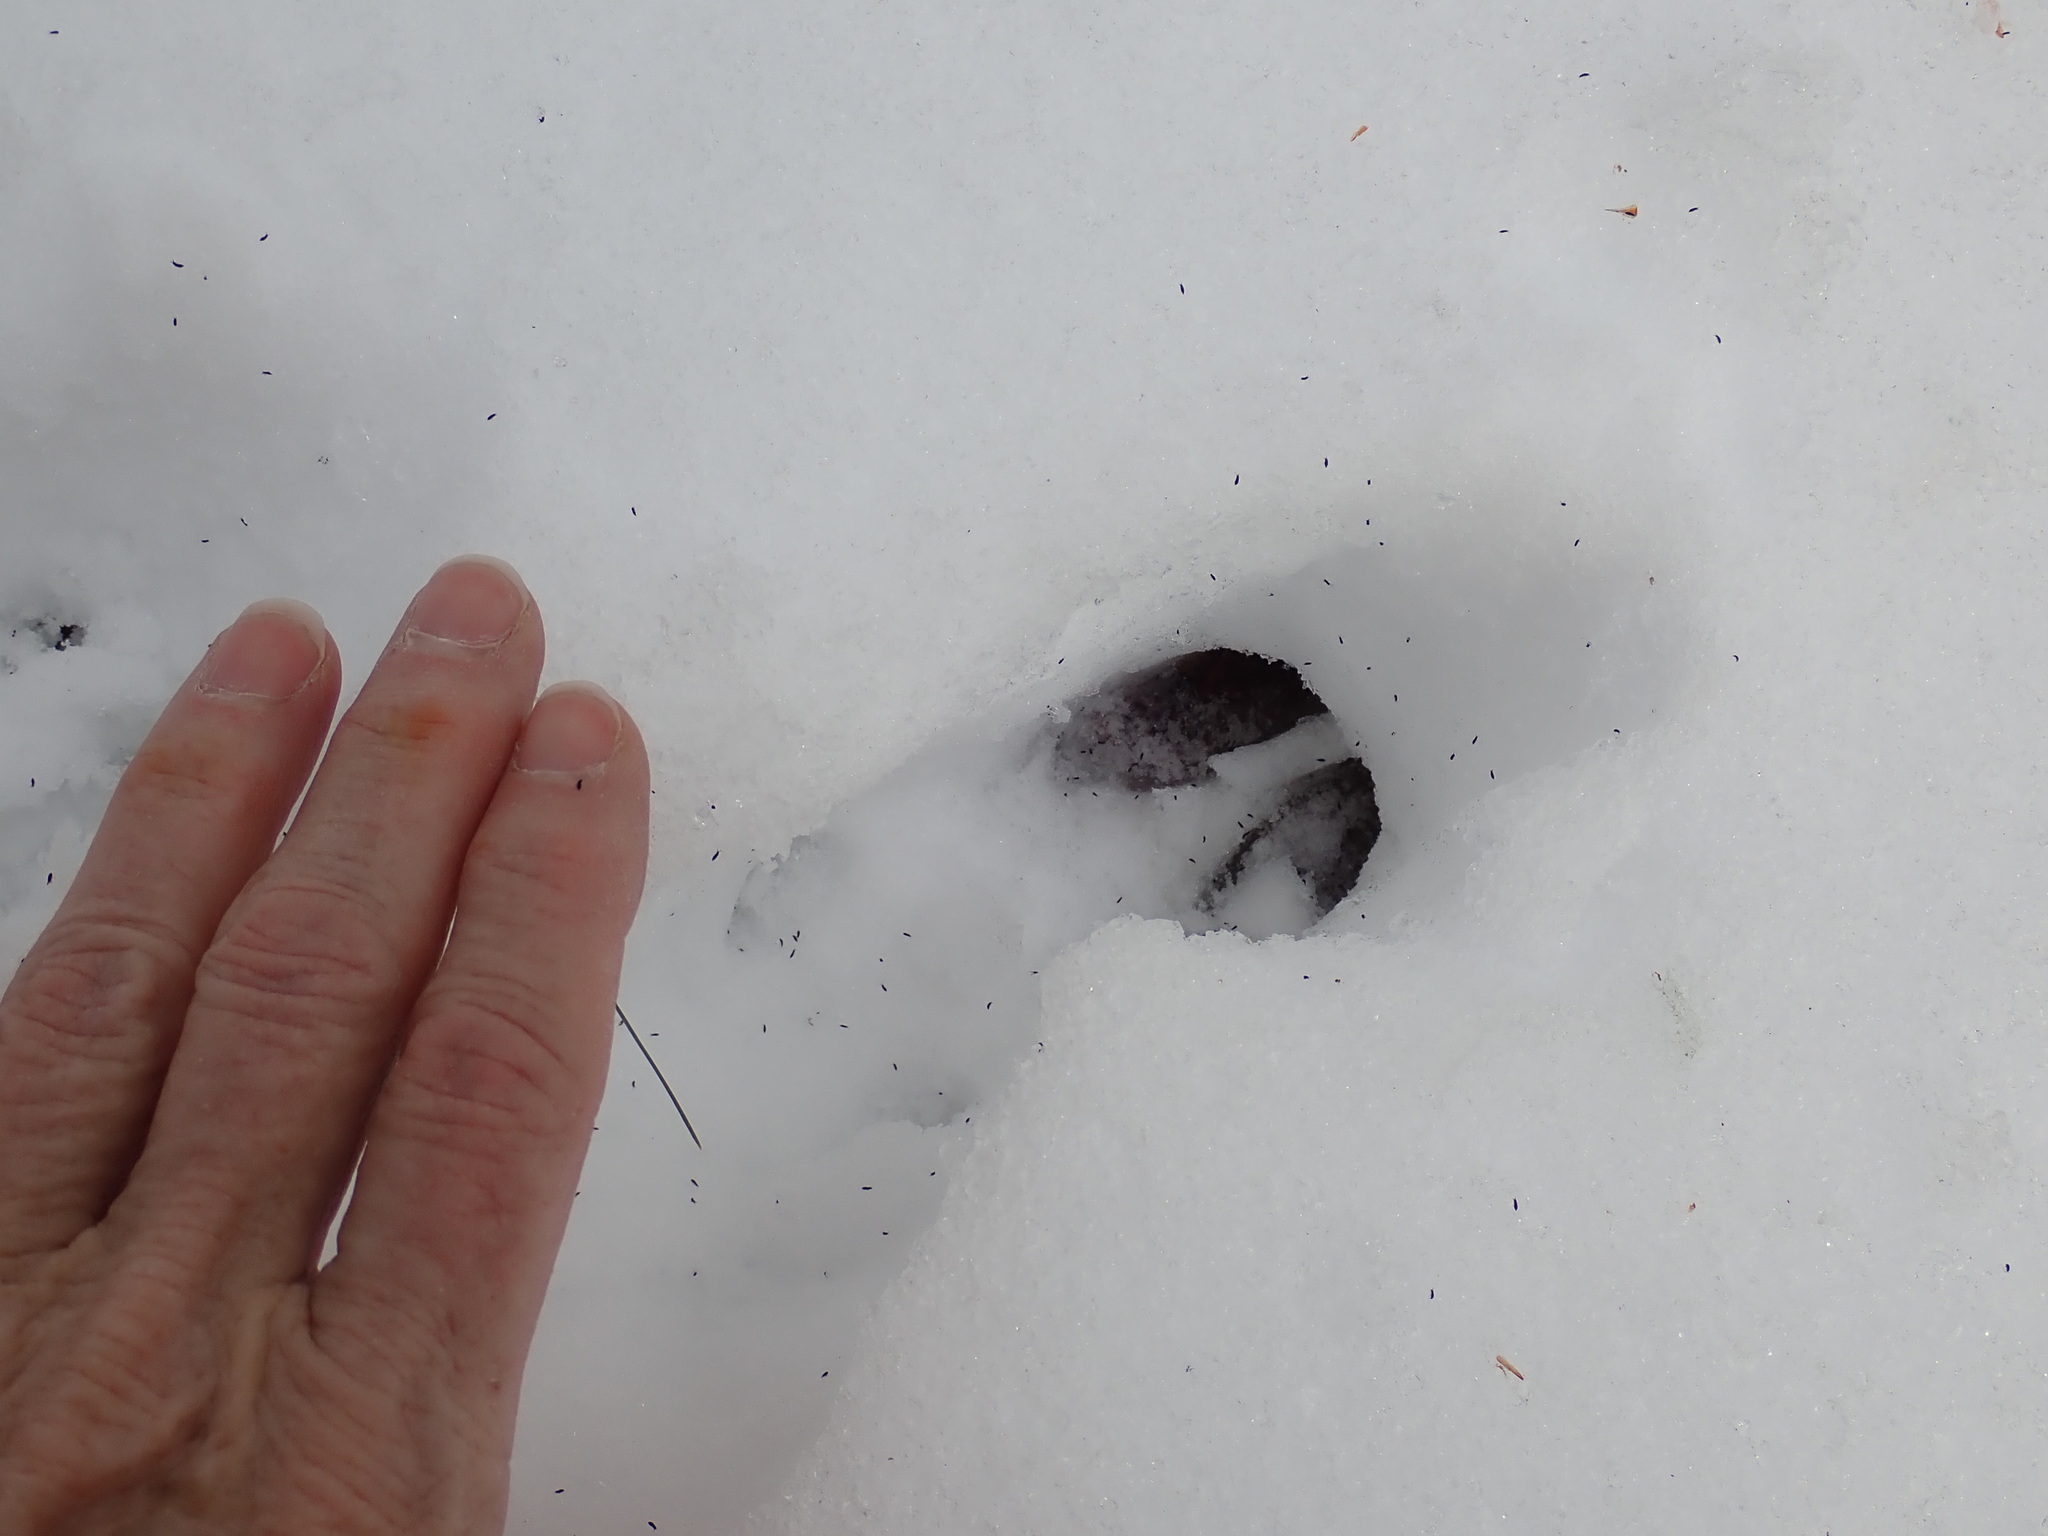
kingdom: Animalia
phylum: Chordata
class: Mammalia
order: Artiodactyla
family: Cervidae
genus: Odocoileus
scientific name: Odocoileus virginianus
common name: White-tailed deer
